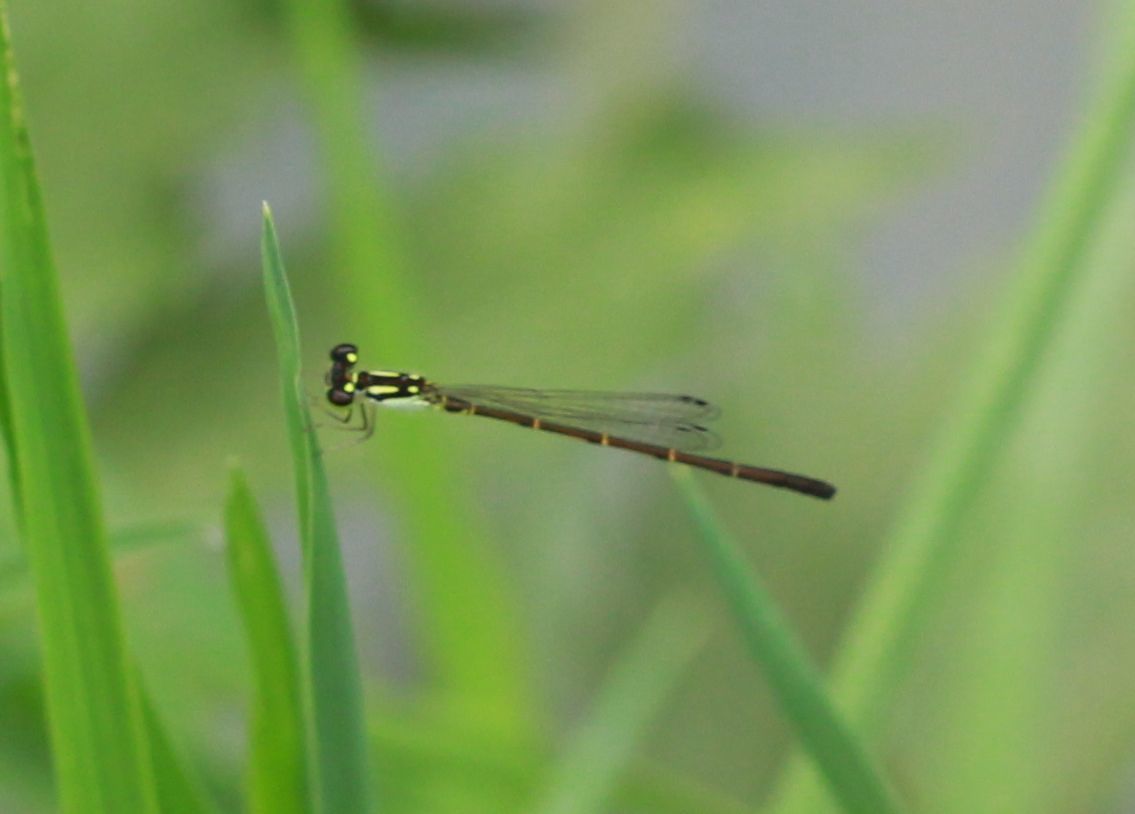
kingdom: Animalia
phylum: Arthropoda
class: Insecta
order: Odonata
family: Coenagrionidae
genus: Ischnura
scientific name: Ischnura posita
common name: Fragile forktail
